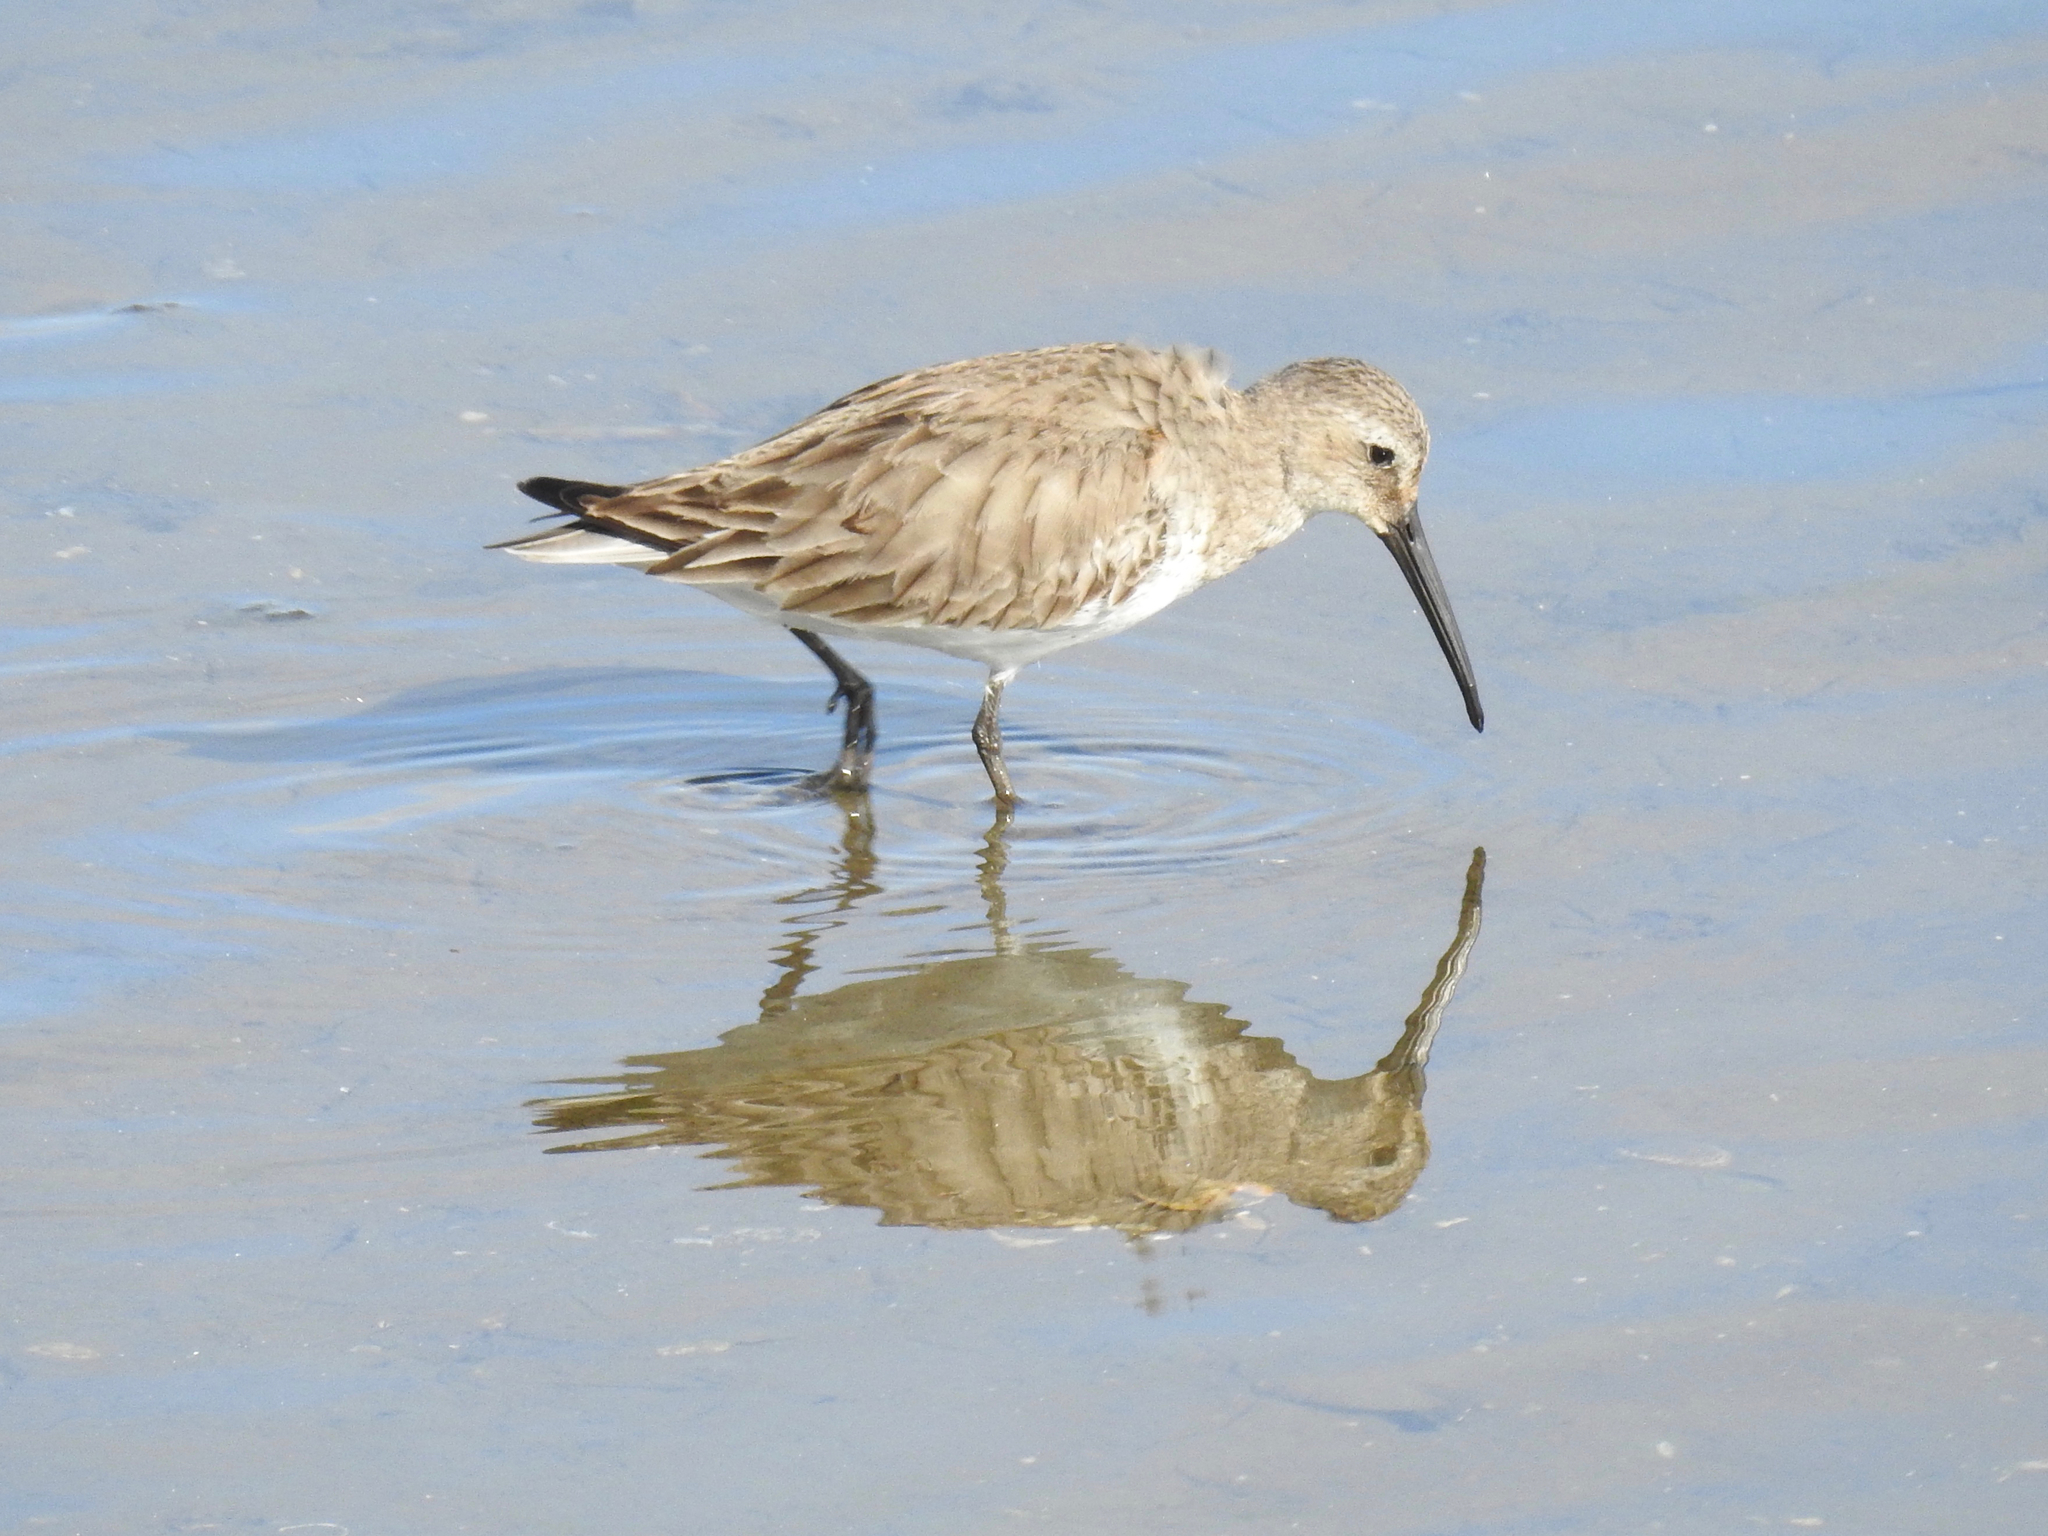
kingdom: Animalia
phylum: Chordata
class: Aves
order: Charadriiformes
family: Scolopacidae
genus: Calidris
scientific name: Calidris alpina
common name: Dunlin
